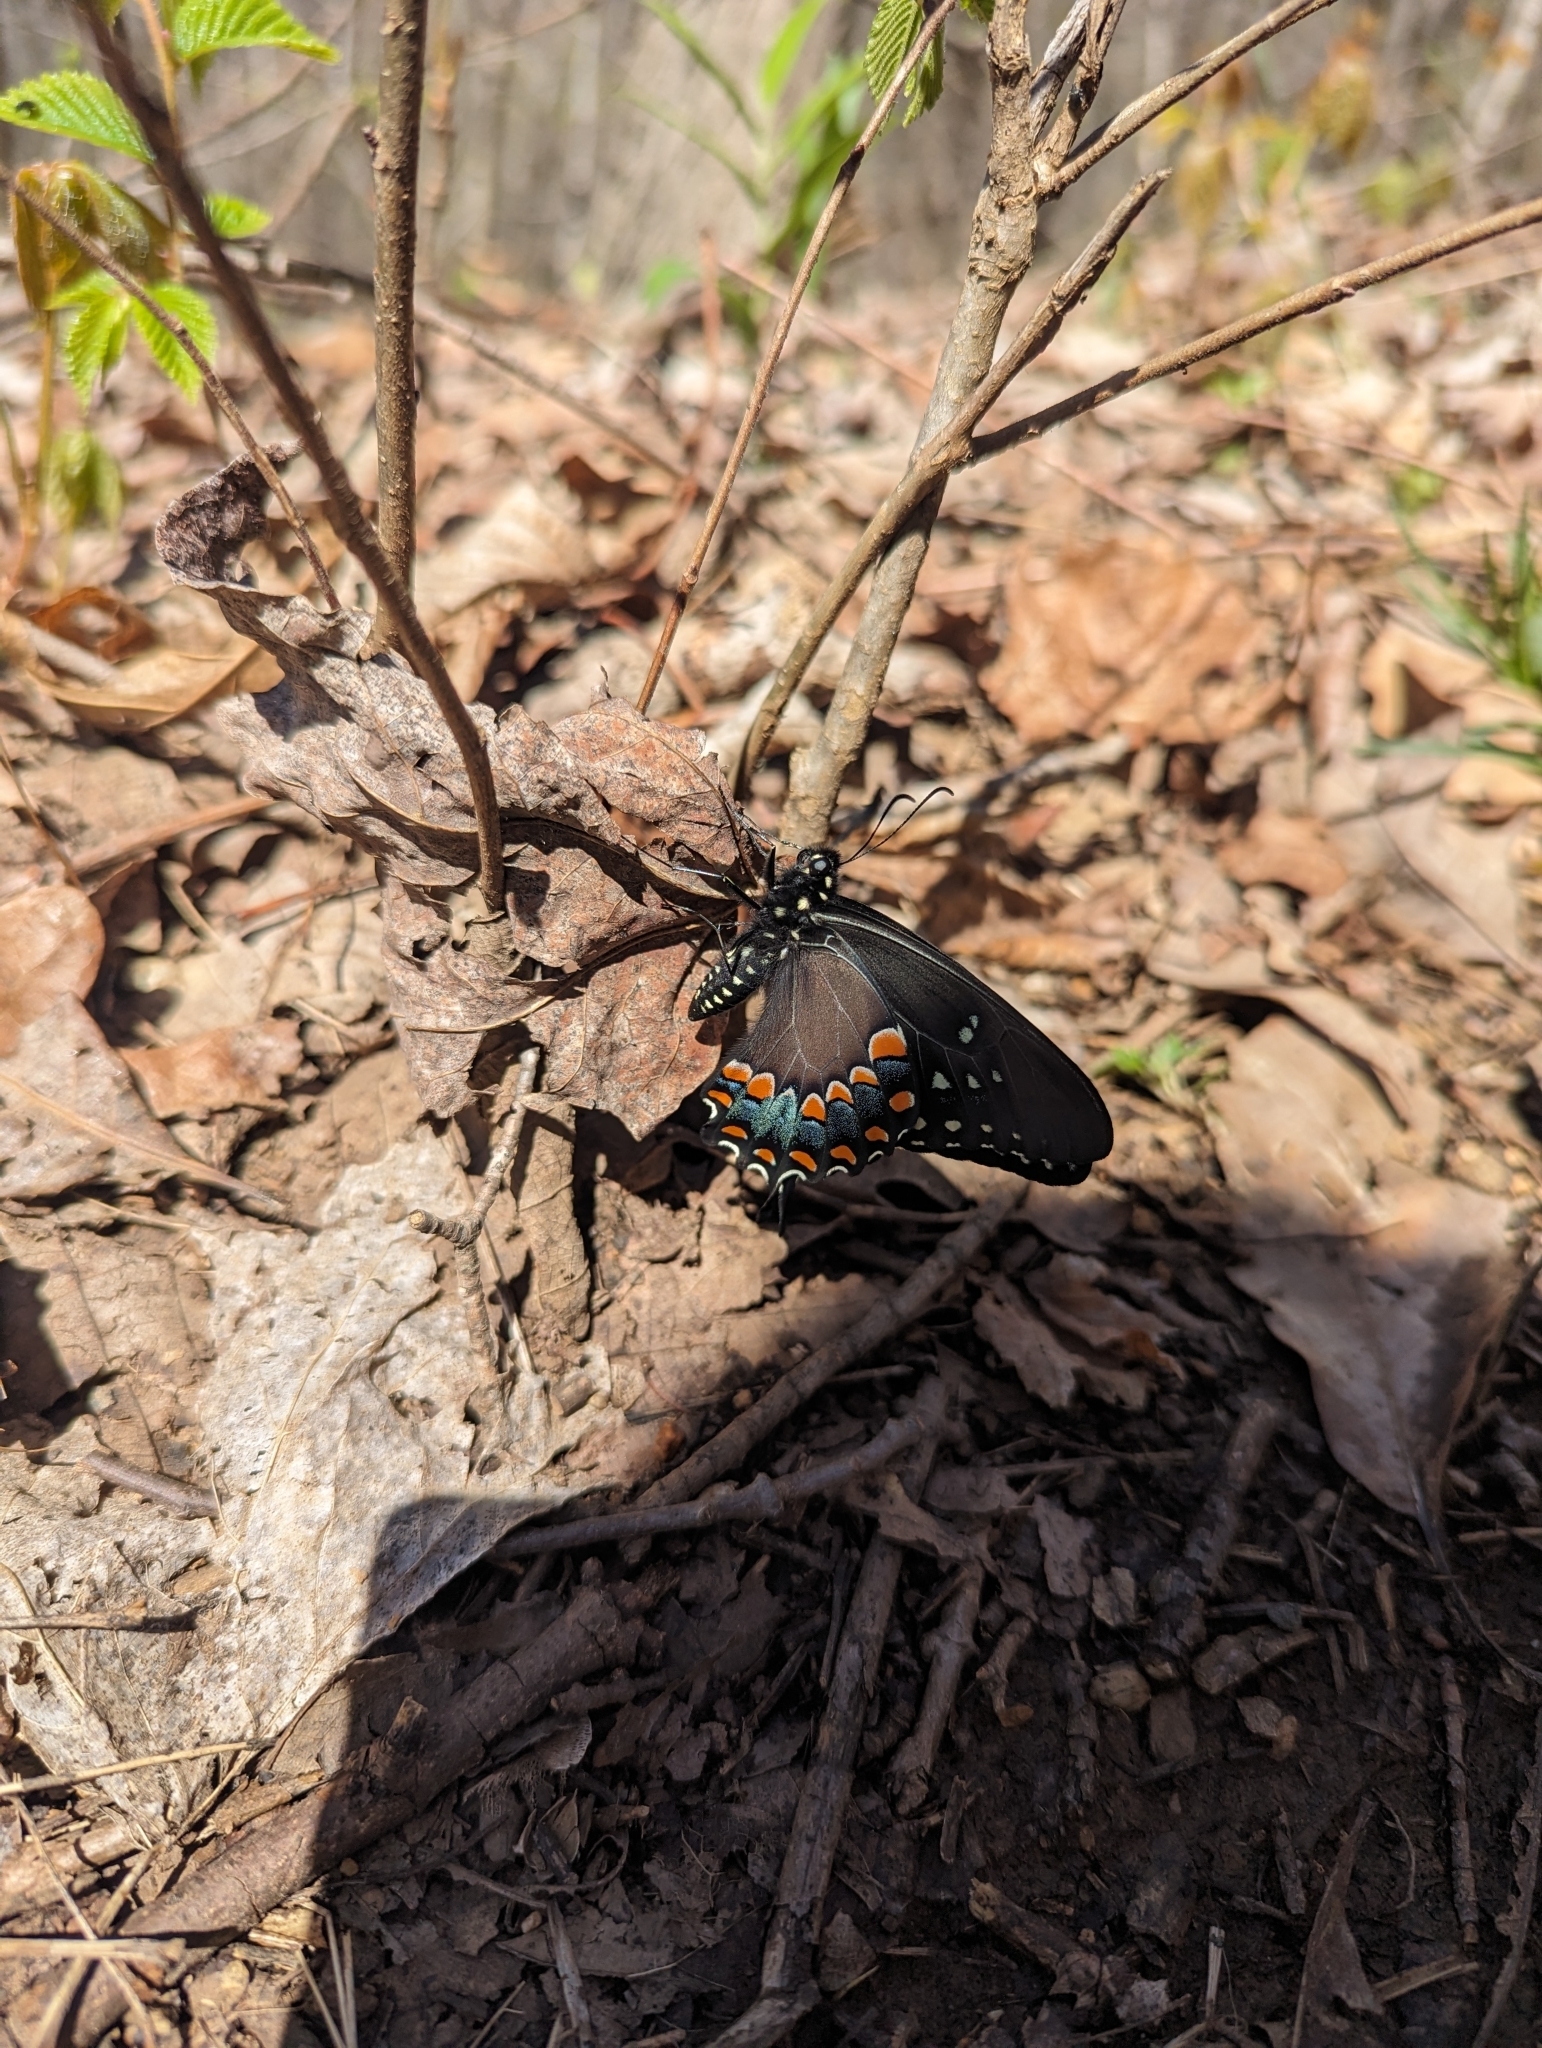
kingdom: Animalia
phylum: Arthropoda
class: Insecta
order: Lepidoptera
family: Papilionidae
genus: Papilio
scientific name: Papilio troilus
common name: Spicebush swallowtail
